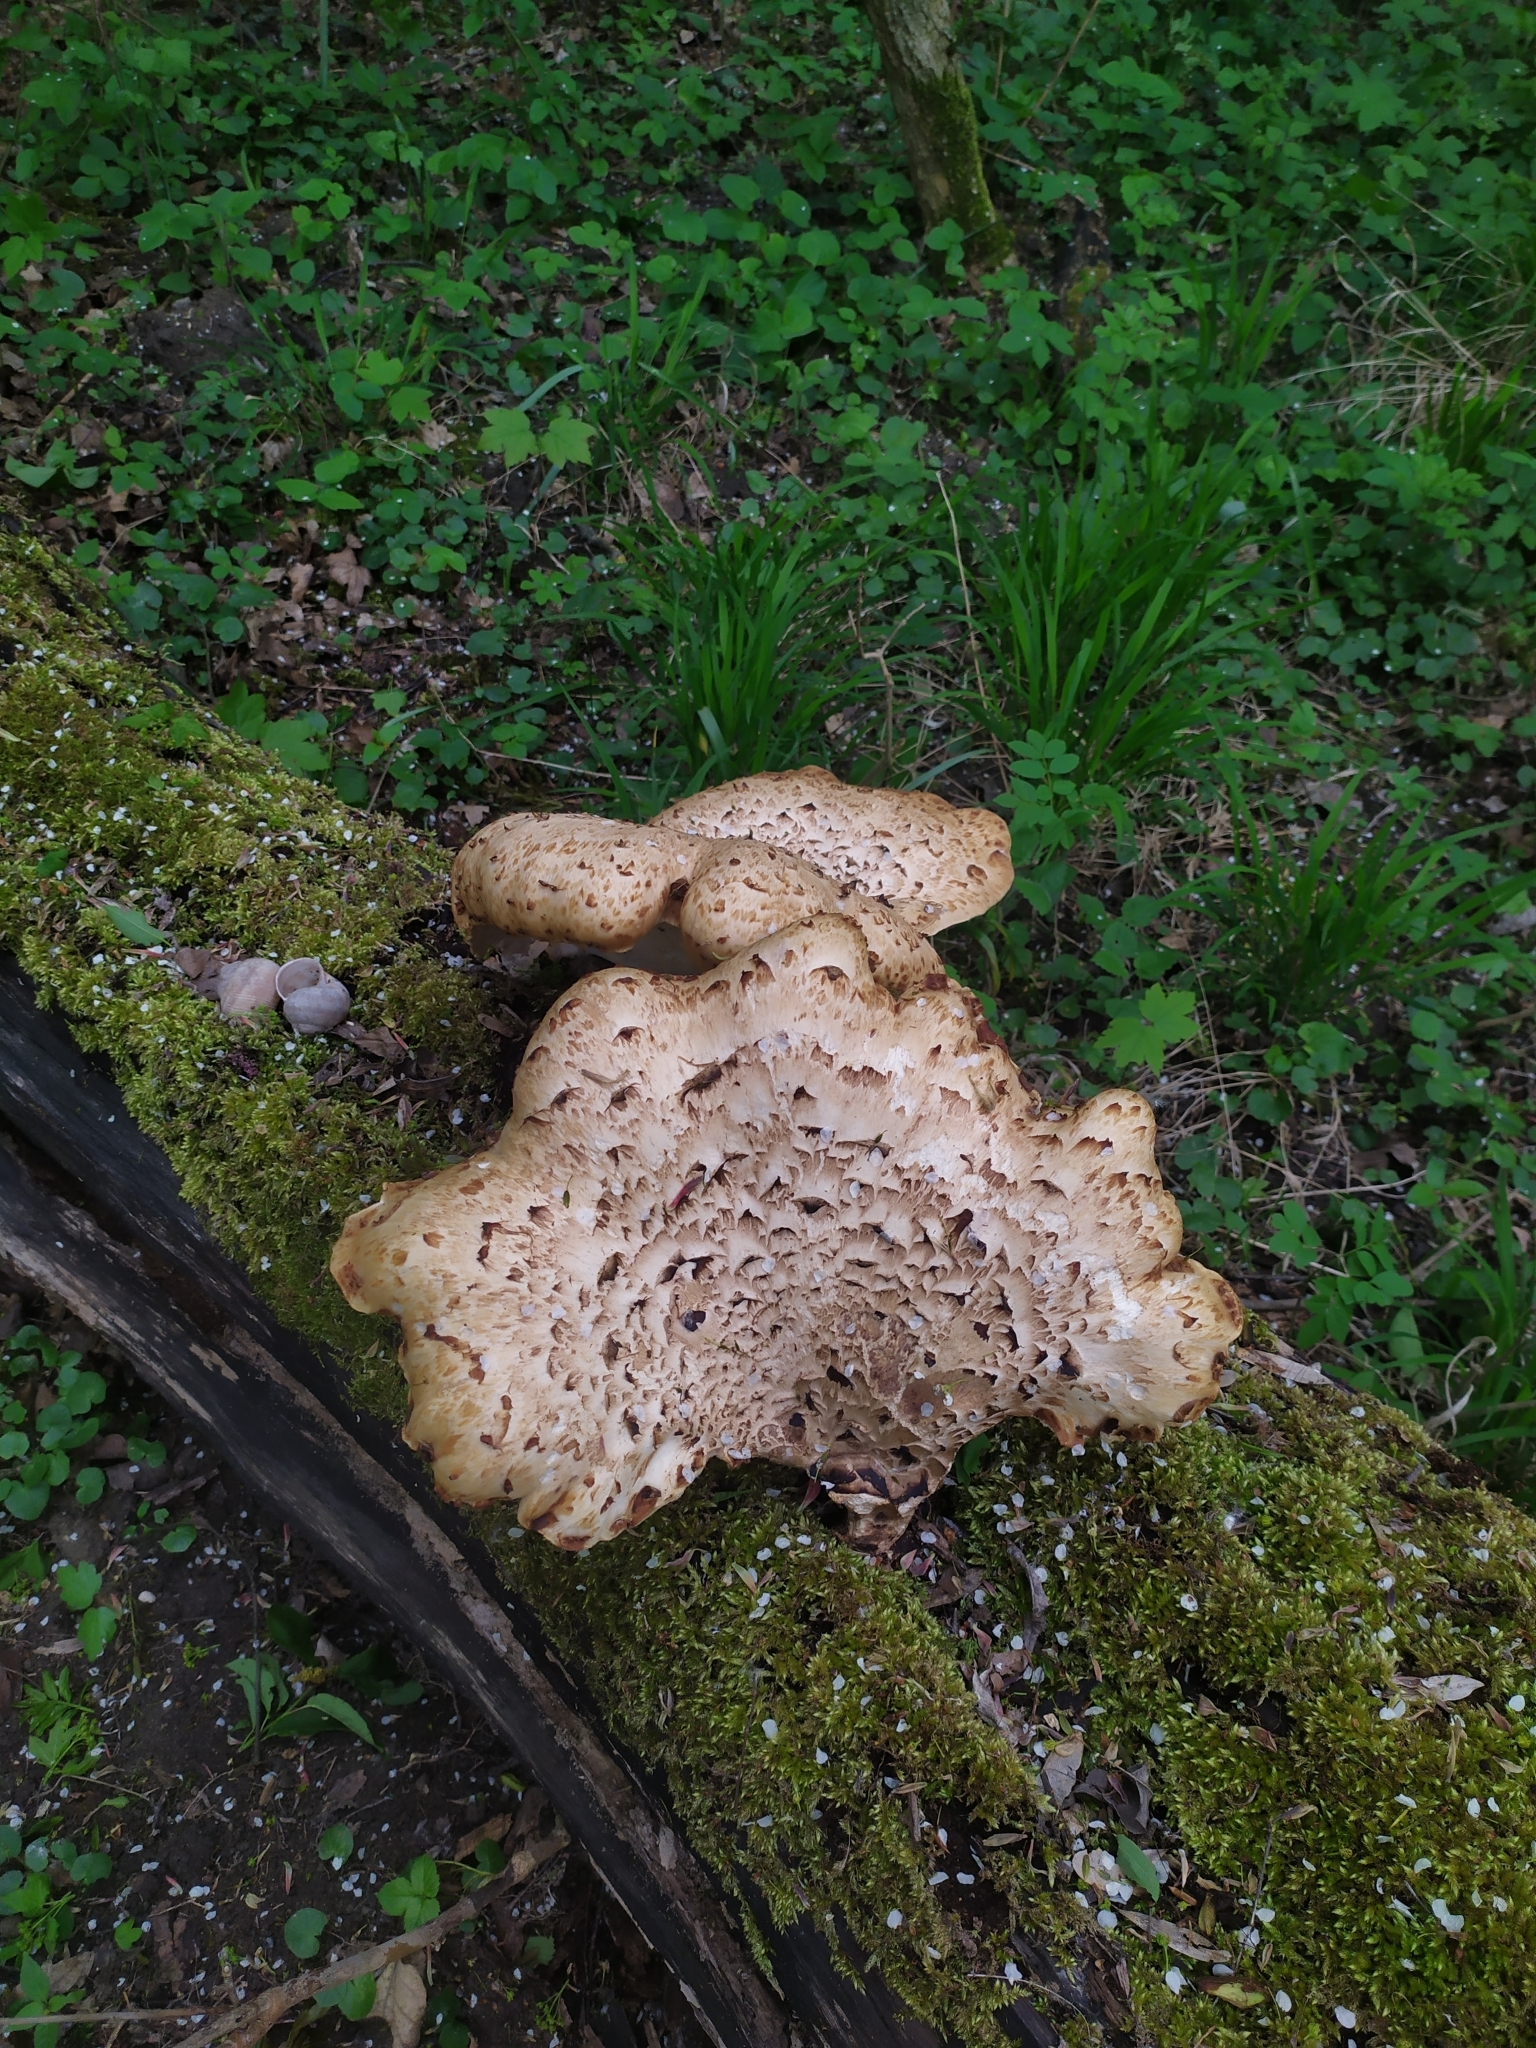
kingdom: Fungi
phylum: Basidiomycota
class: Agaricomycetes
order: Polyporales
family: Polyporaceae
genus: Cerioporus
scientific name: Cerioporus squamosus
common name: Dryad's saddle
